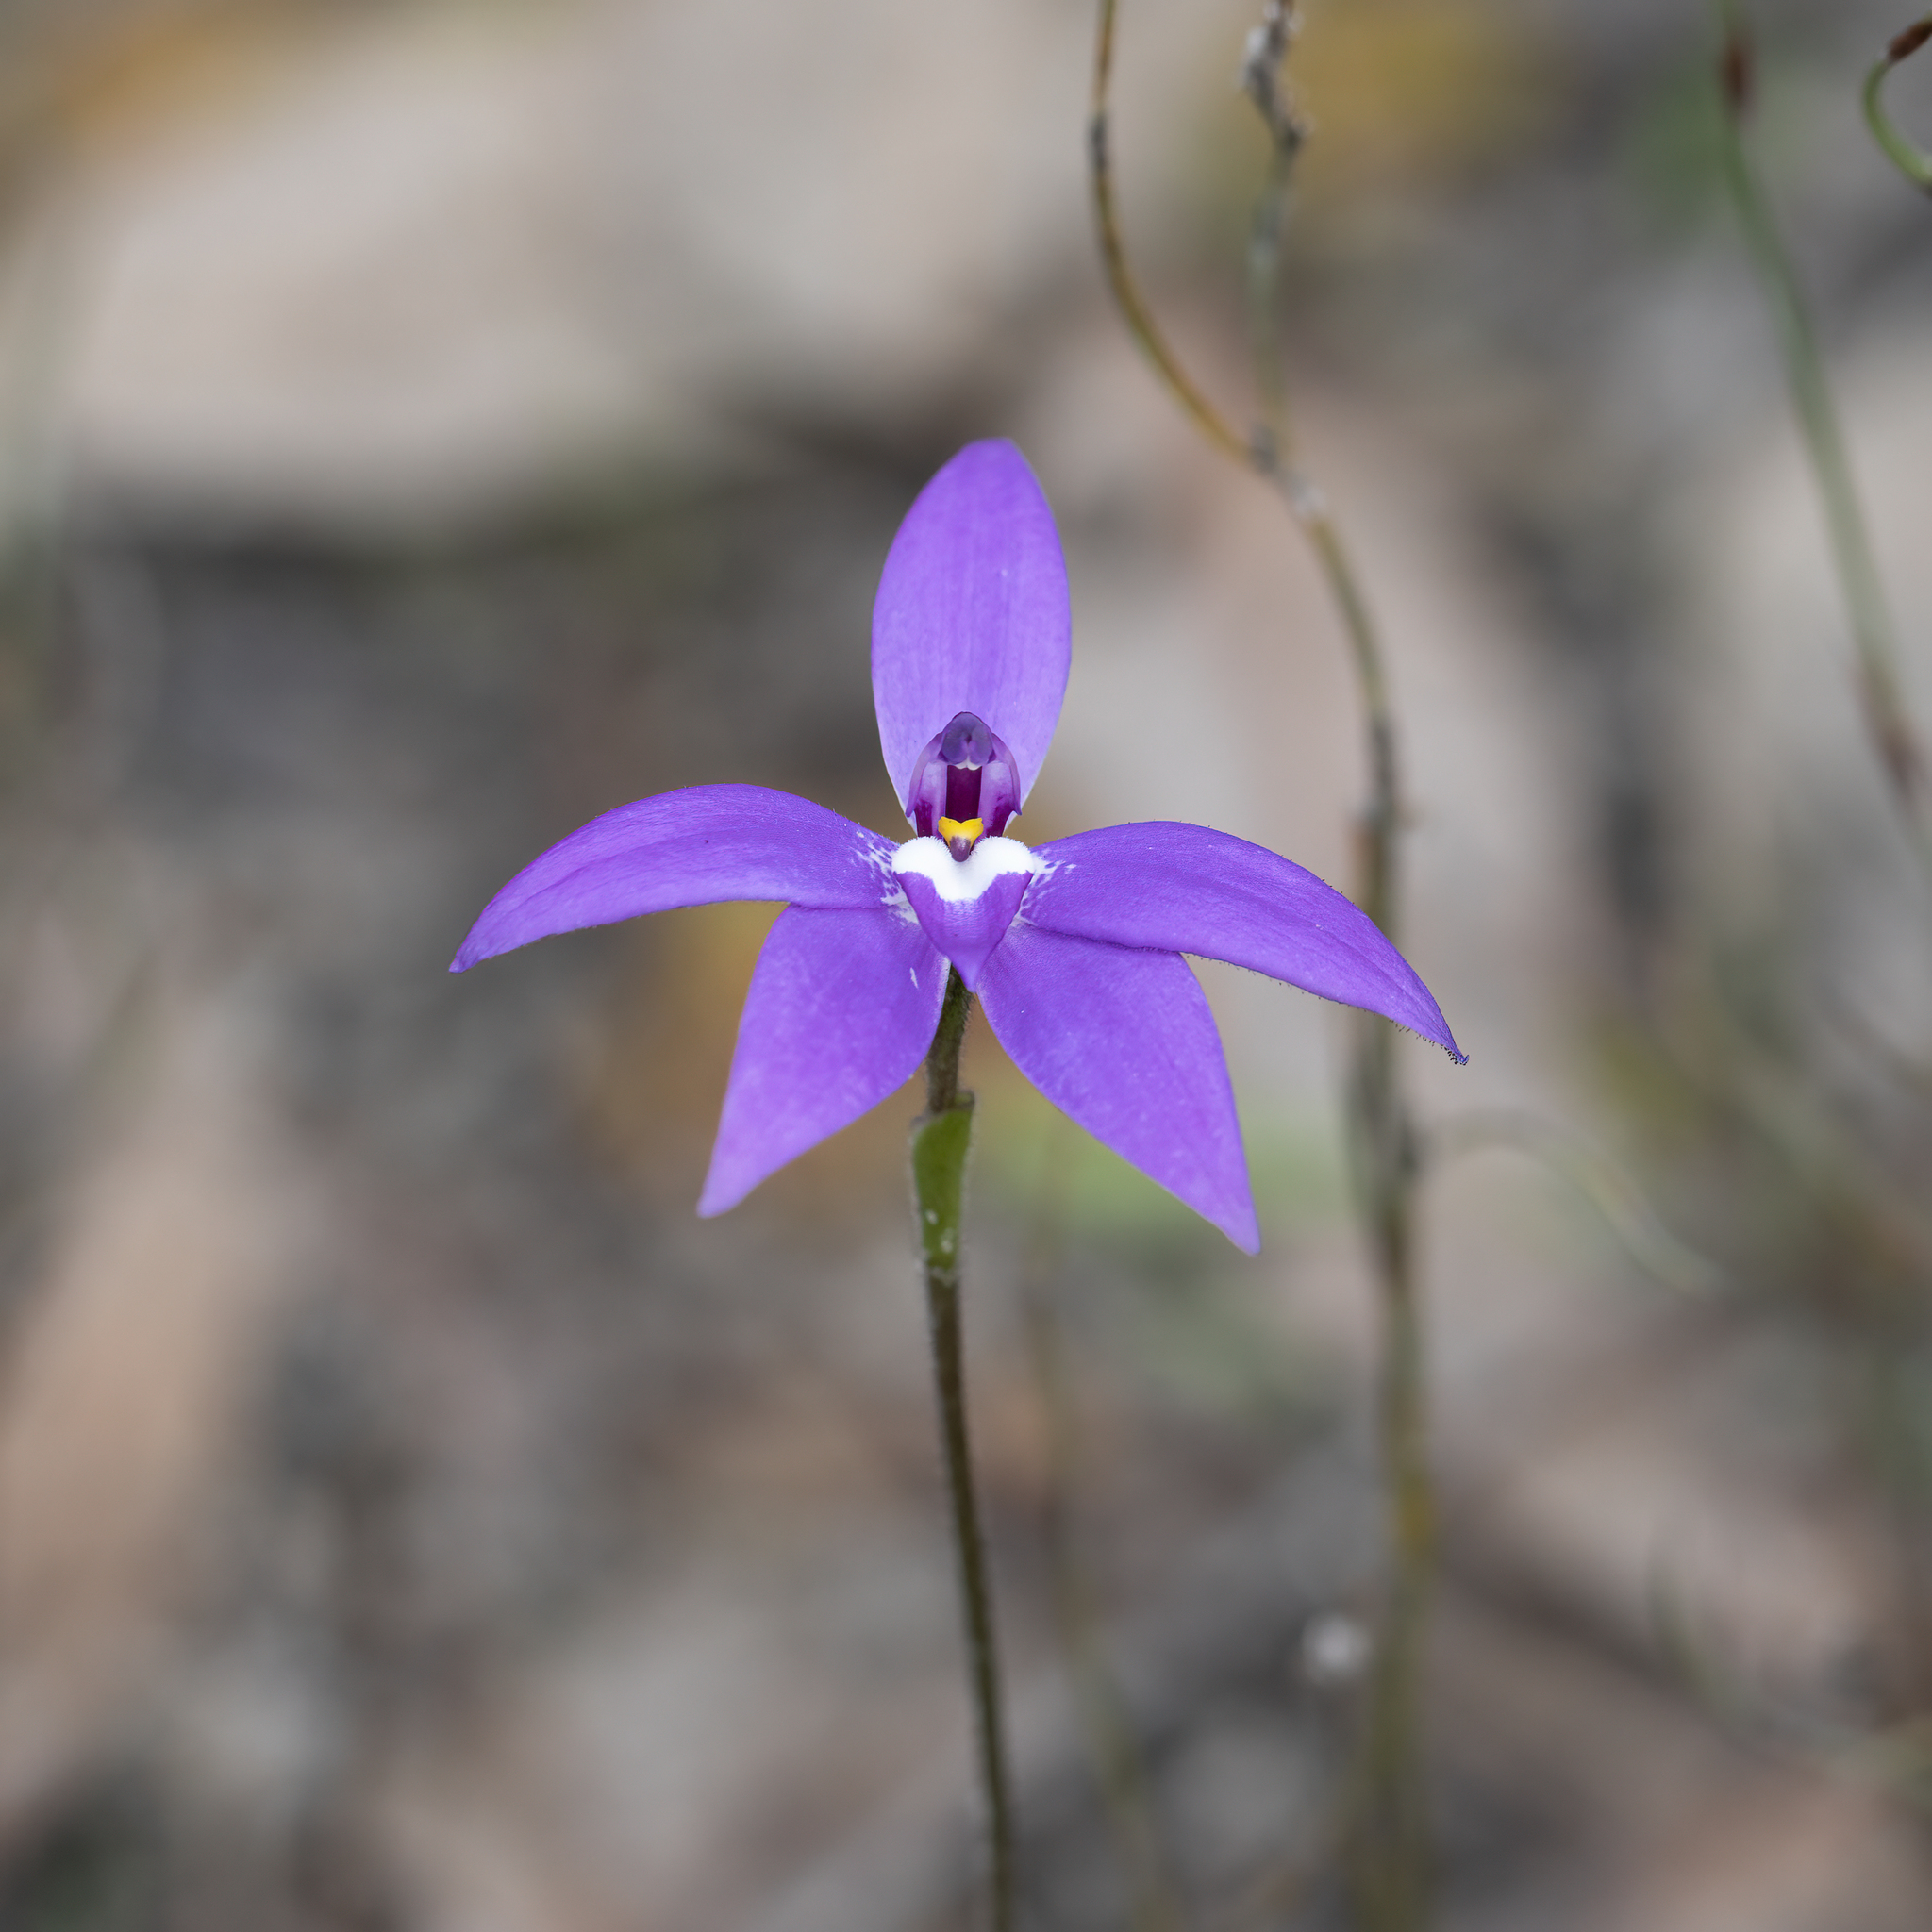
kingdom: Plantae
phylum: Tracheophyta
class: Liliopsida
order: Asparagales
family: Orchidaceae
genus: Caladenia
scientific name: Caladenia major
